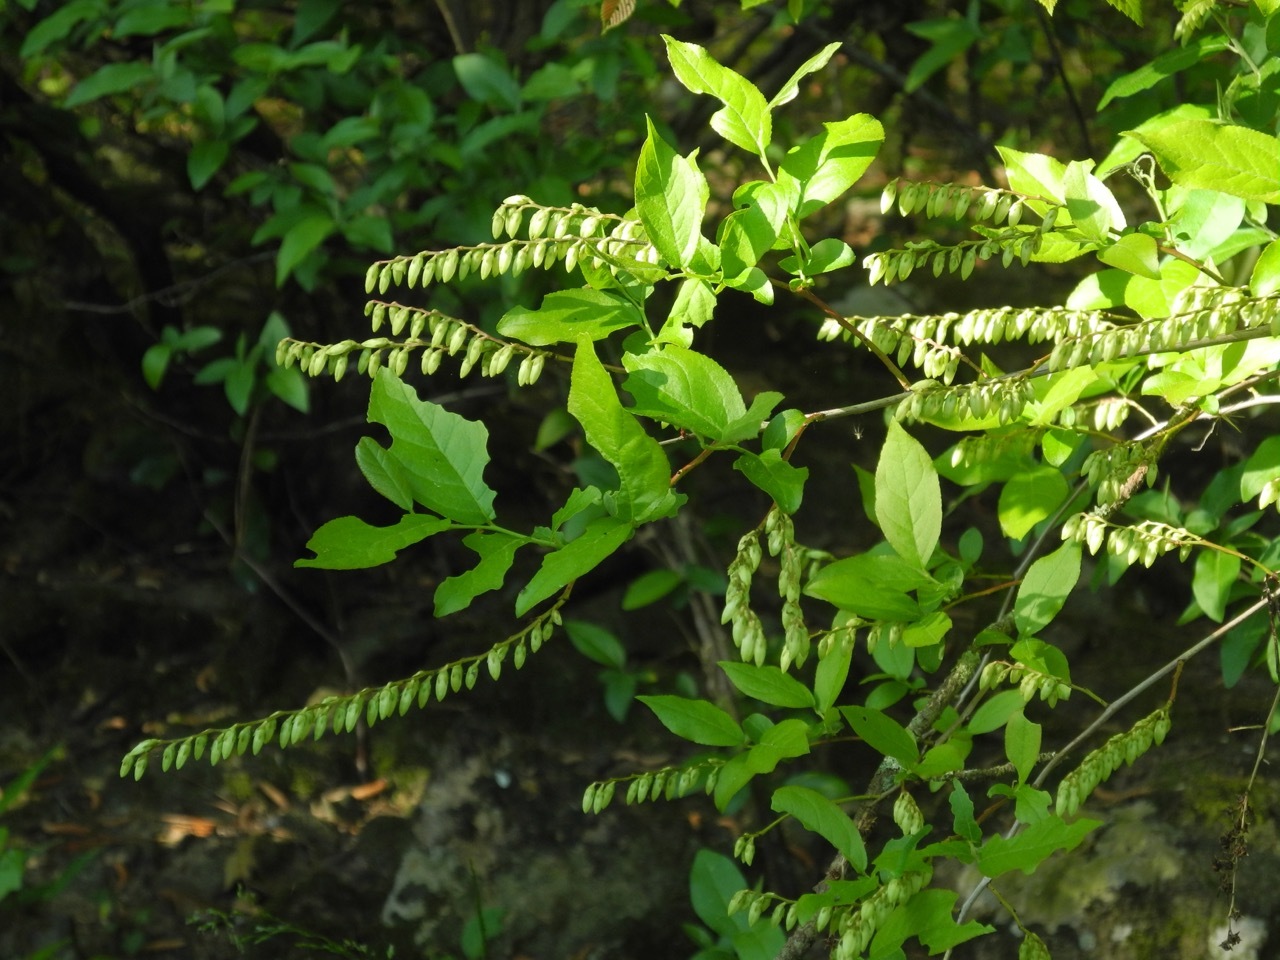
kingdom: Plantae
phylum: Tracheophyta
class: Magnoliopsida
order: Ericales
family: Ericaceae
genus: Eubotrys
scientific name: Eubotrys racemosa
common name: Fetterbush
